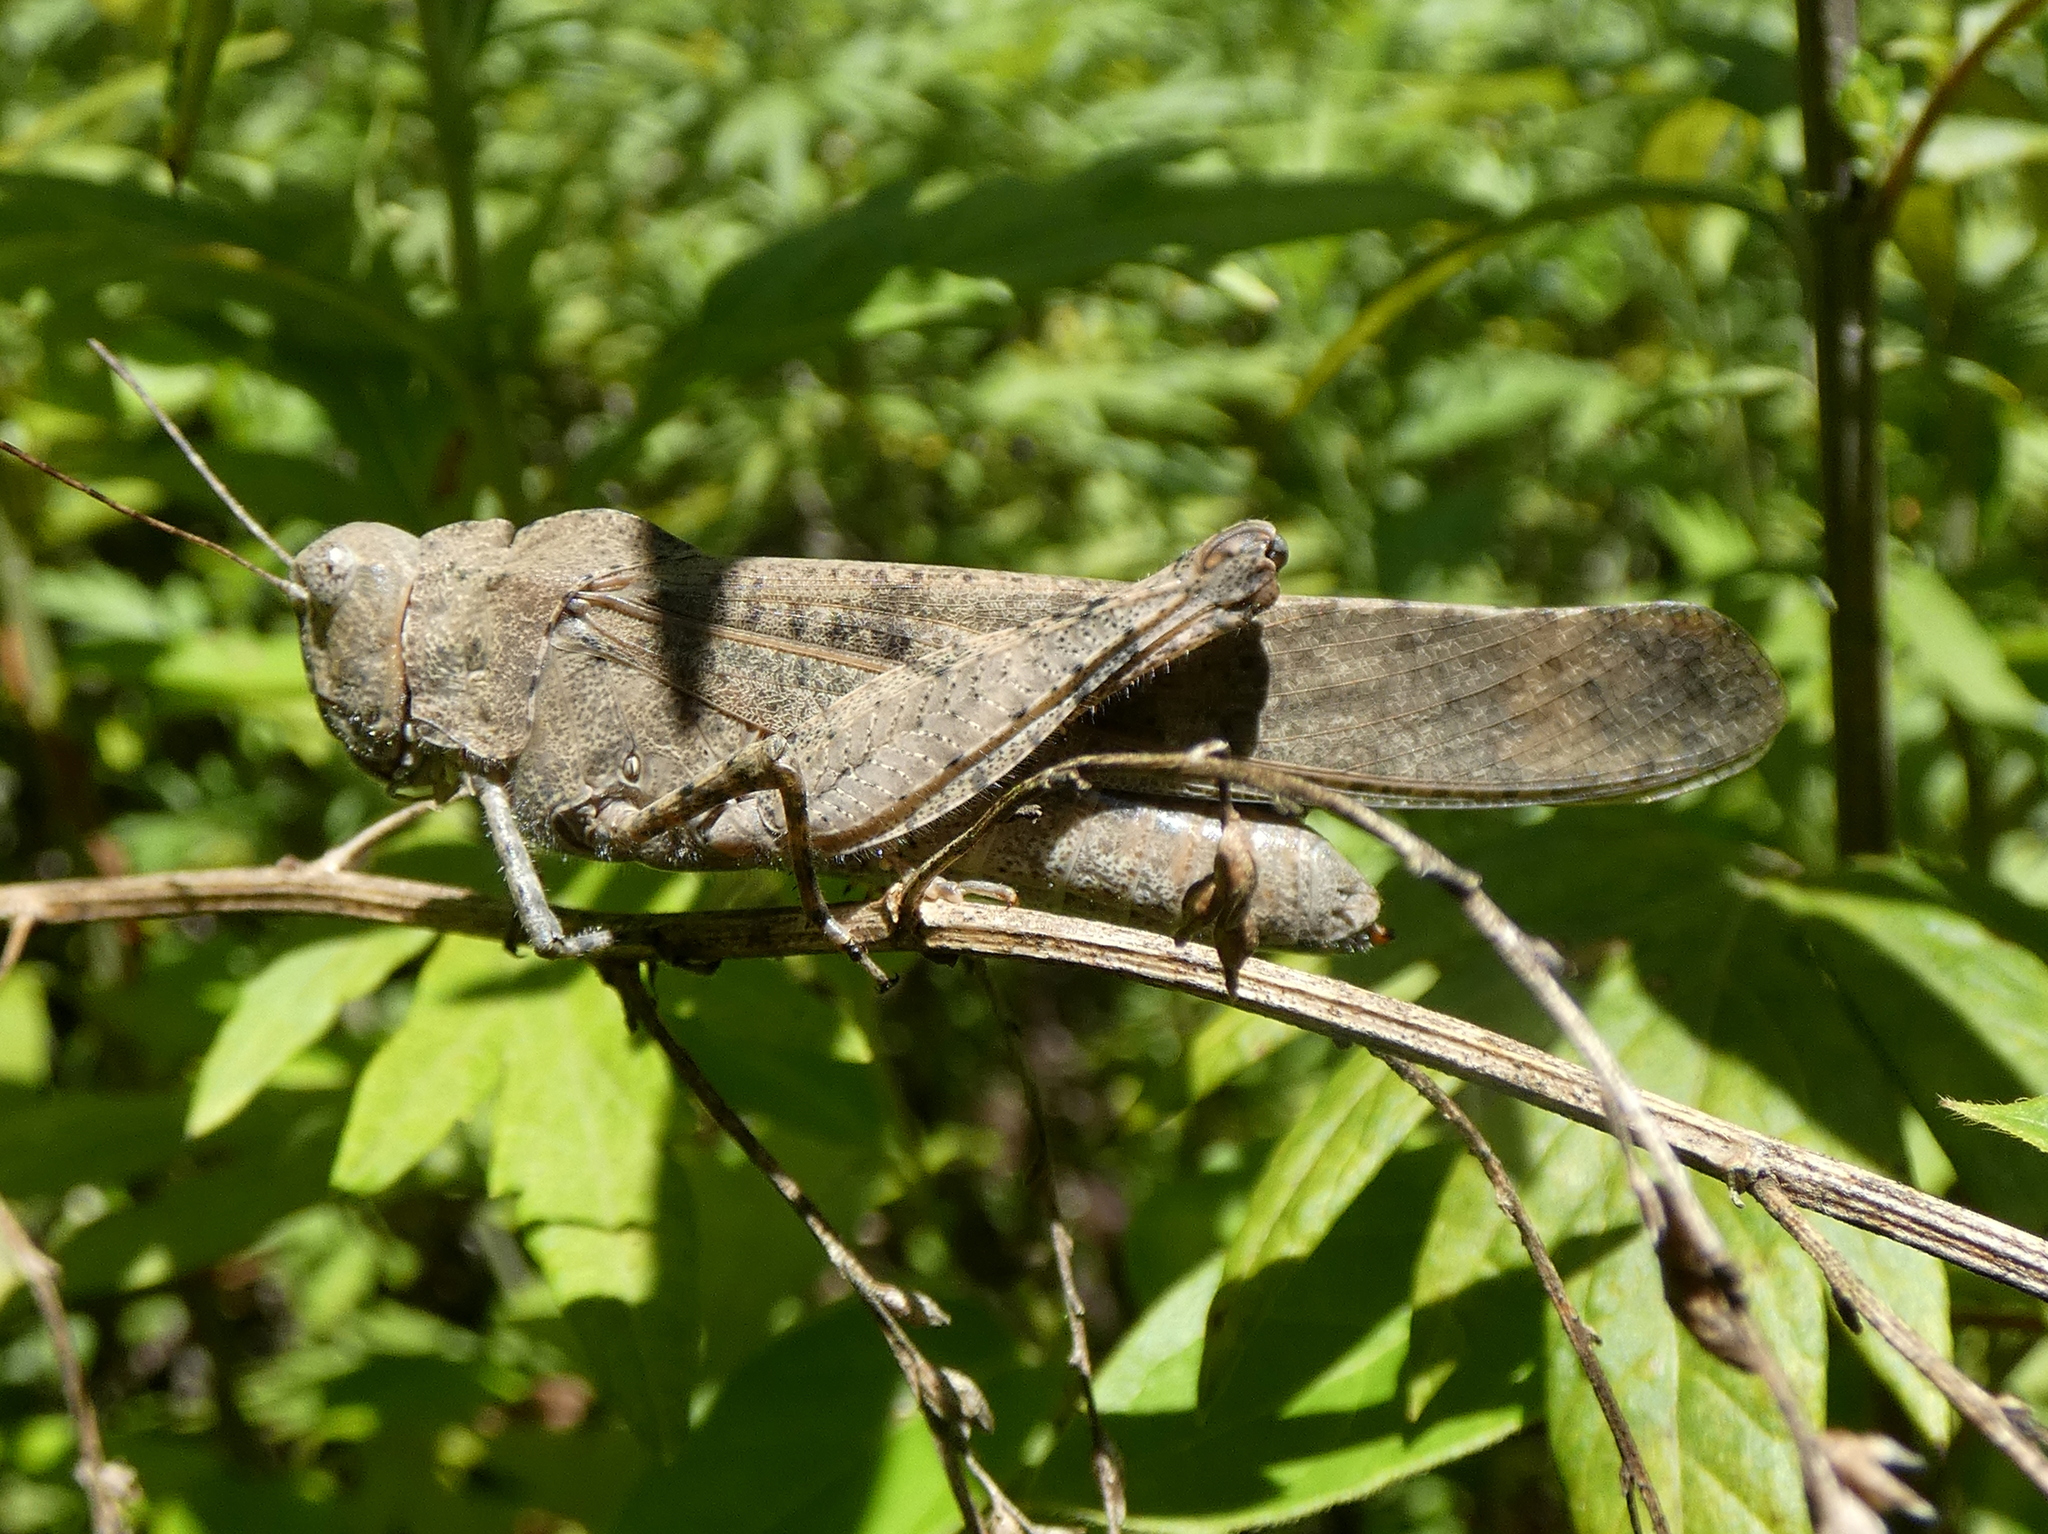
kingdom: Animalia
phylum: Arthropoda
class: Insecta
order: Orthoptera
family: Acrididae
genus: Dissosteira
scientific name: Dissosteira carolina
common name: Carolina grasshopper
